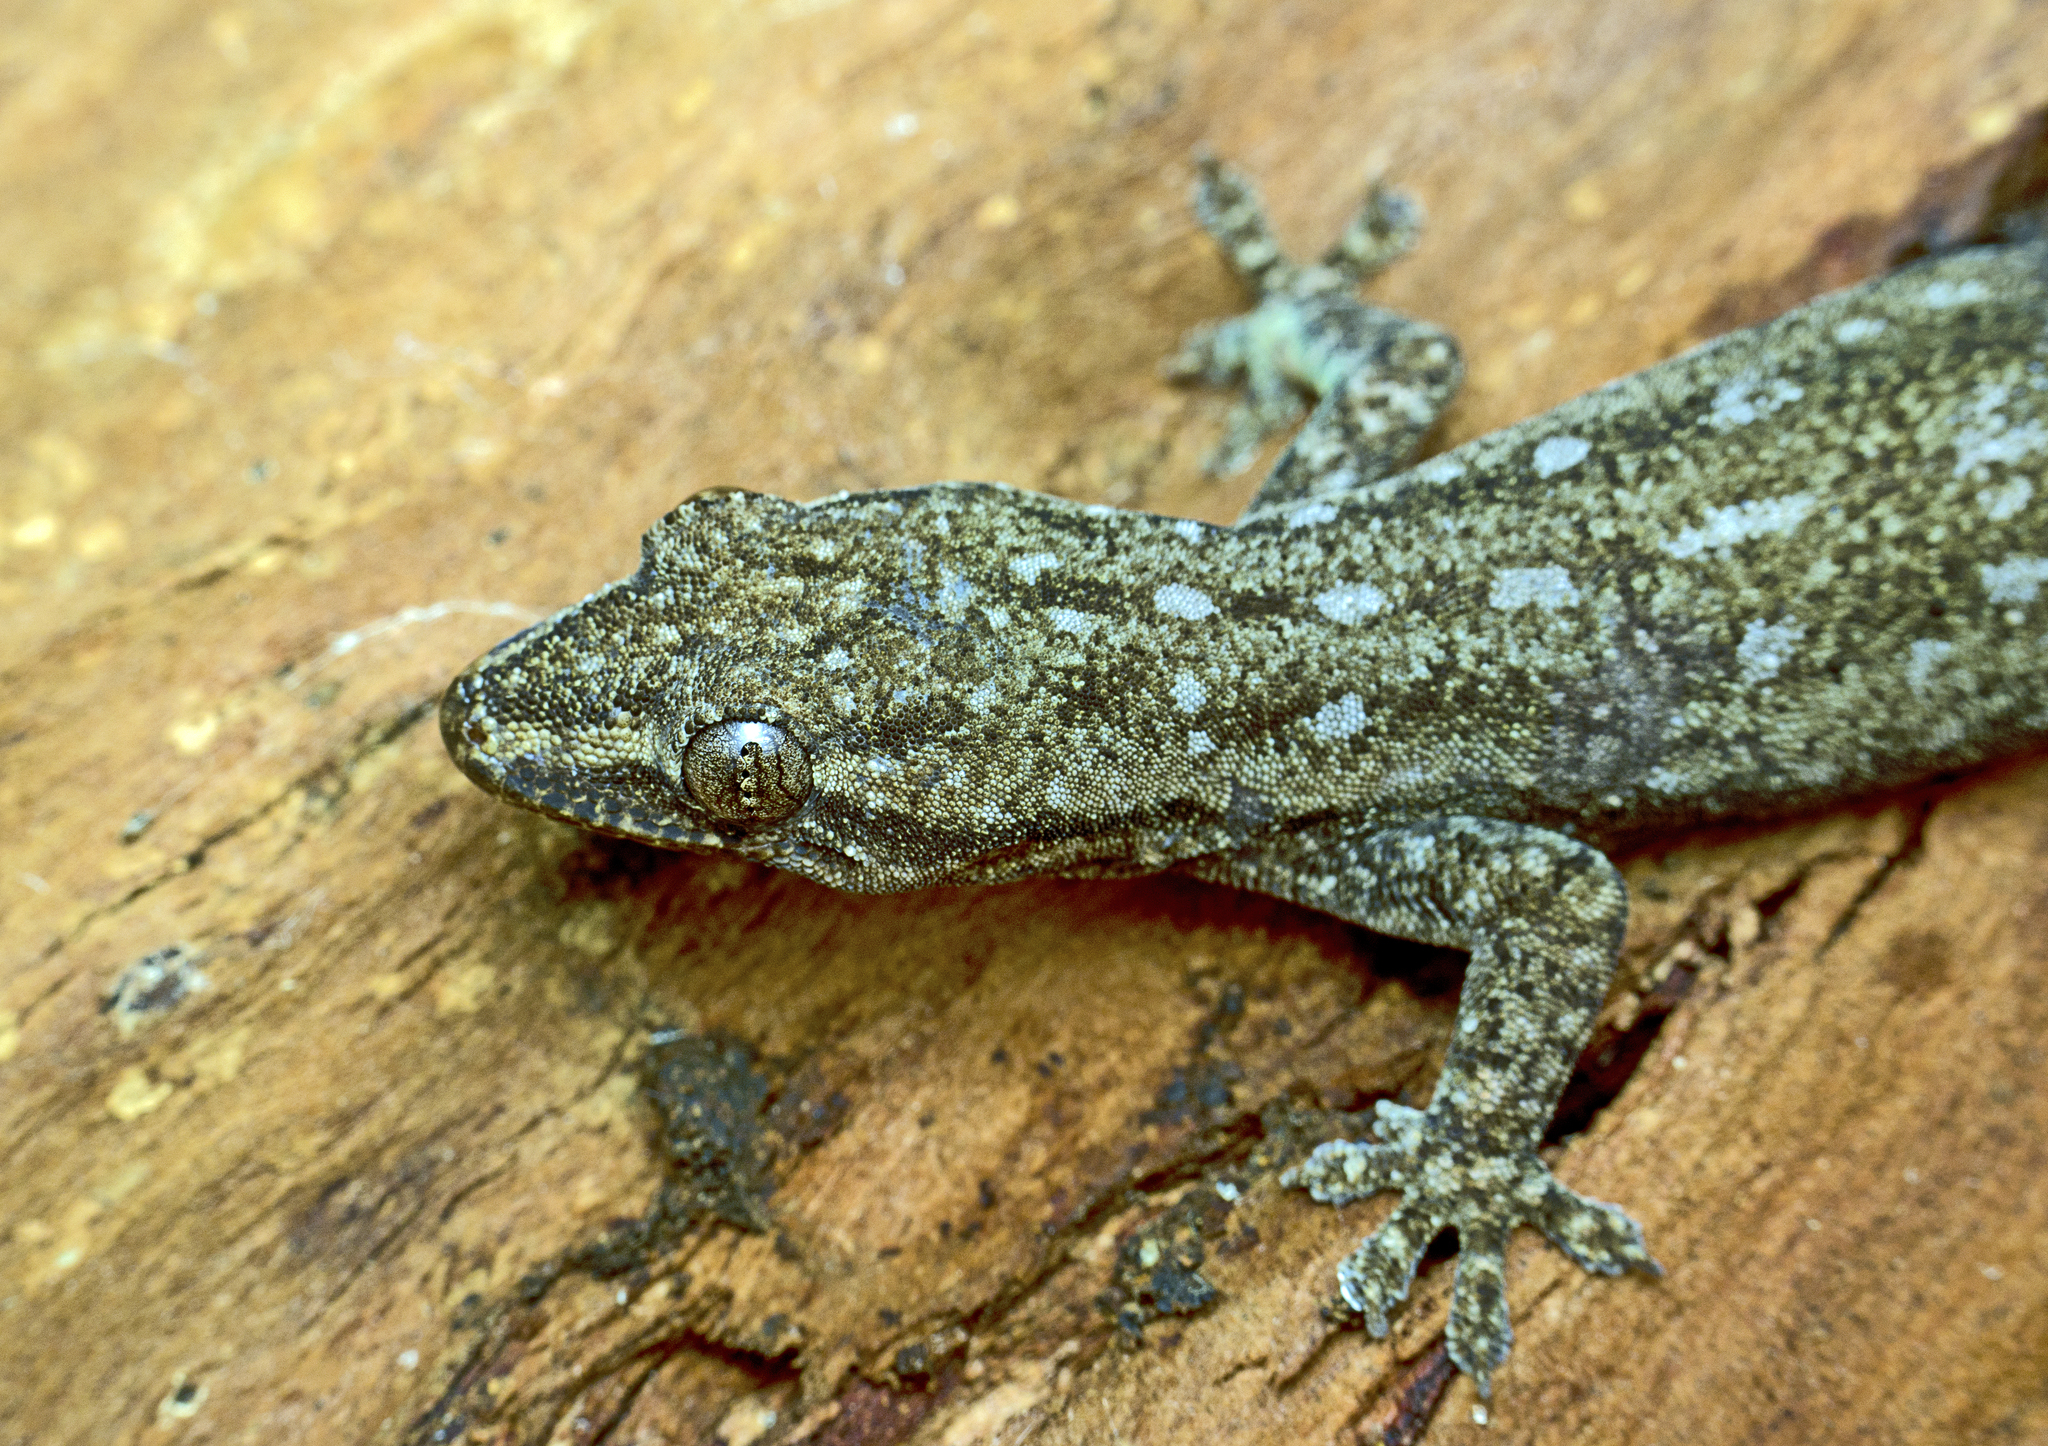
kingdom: Animalia
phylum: Chordata
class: Squamata
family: Gekkonidae
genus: Hemidactylus
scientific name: Hemidactylus frenatus
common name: Common house gecko
